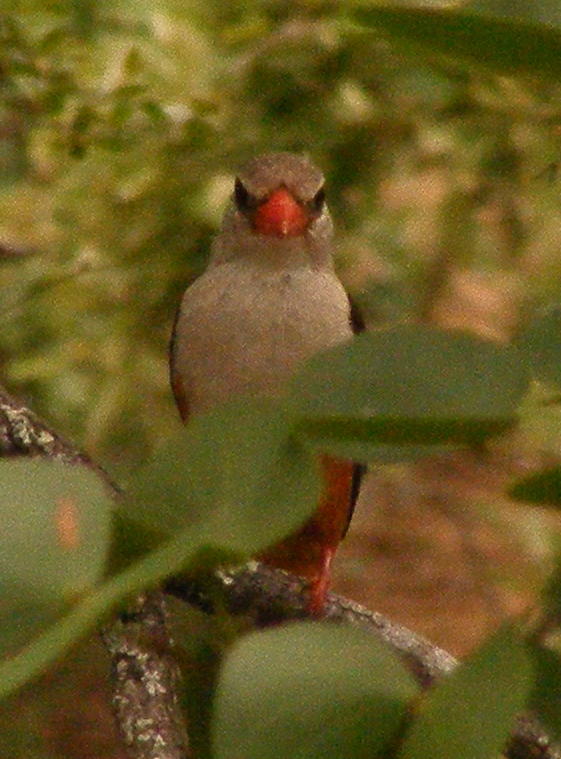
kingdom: Animalia
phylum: Chordata
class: Aves
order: Coraciiformes
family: Alcedinidae
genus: Halcyon
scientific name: Halcyon leucocephala
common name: Grey-headed kingfisher
